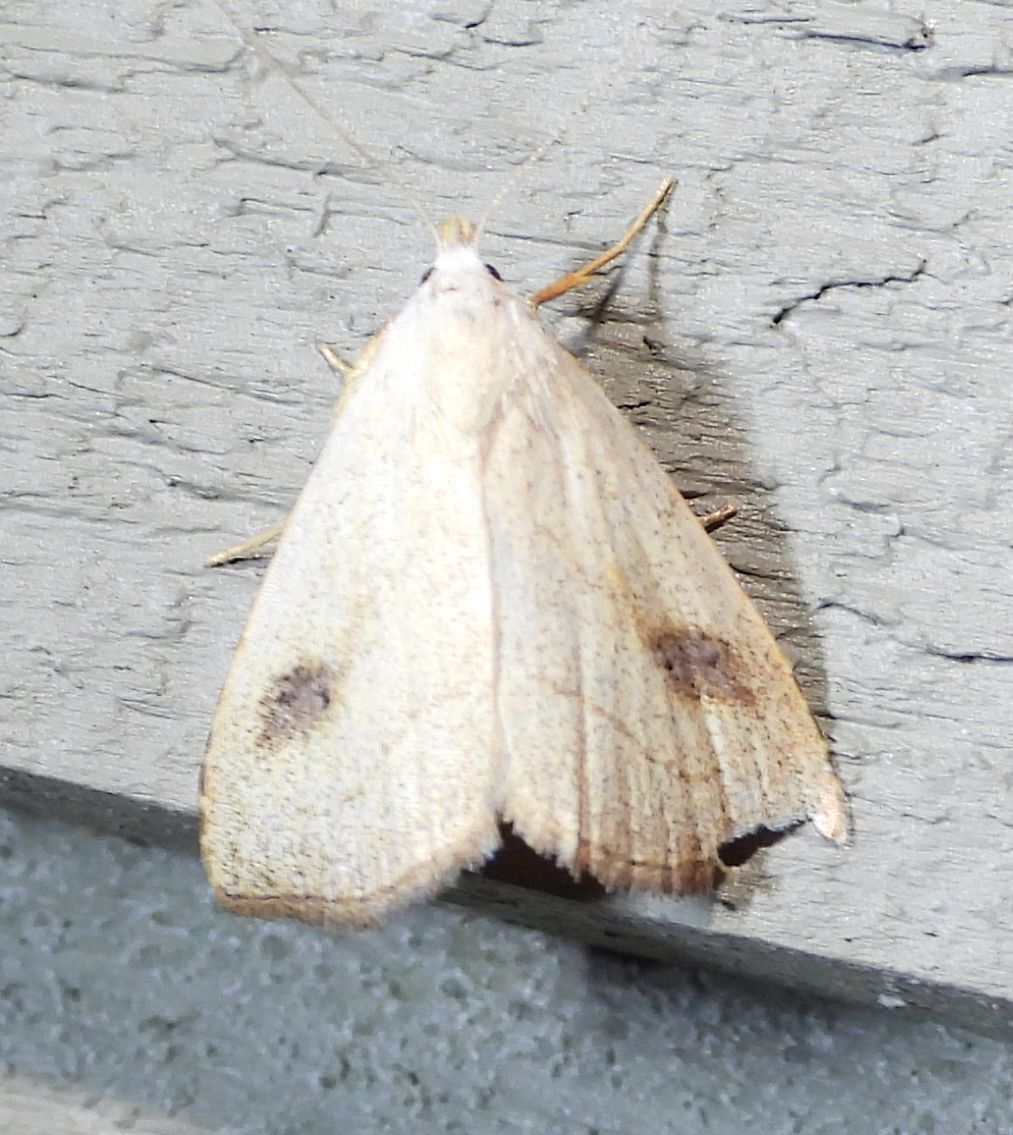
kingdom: Animalia
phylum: Arthropoda
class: Insecta
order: Lepidoptera
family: Erebidae
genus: Rivula
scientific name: Rivula propinqualis
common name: Spotted grass moth
